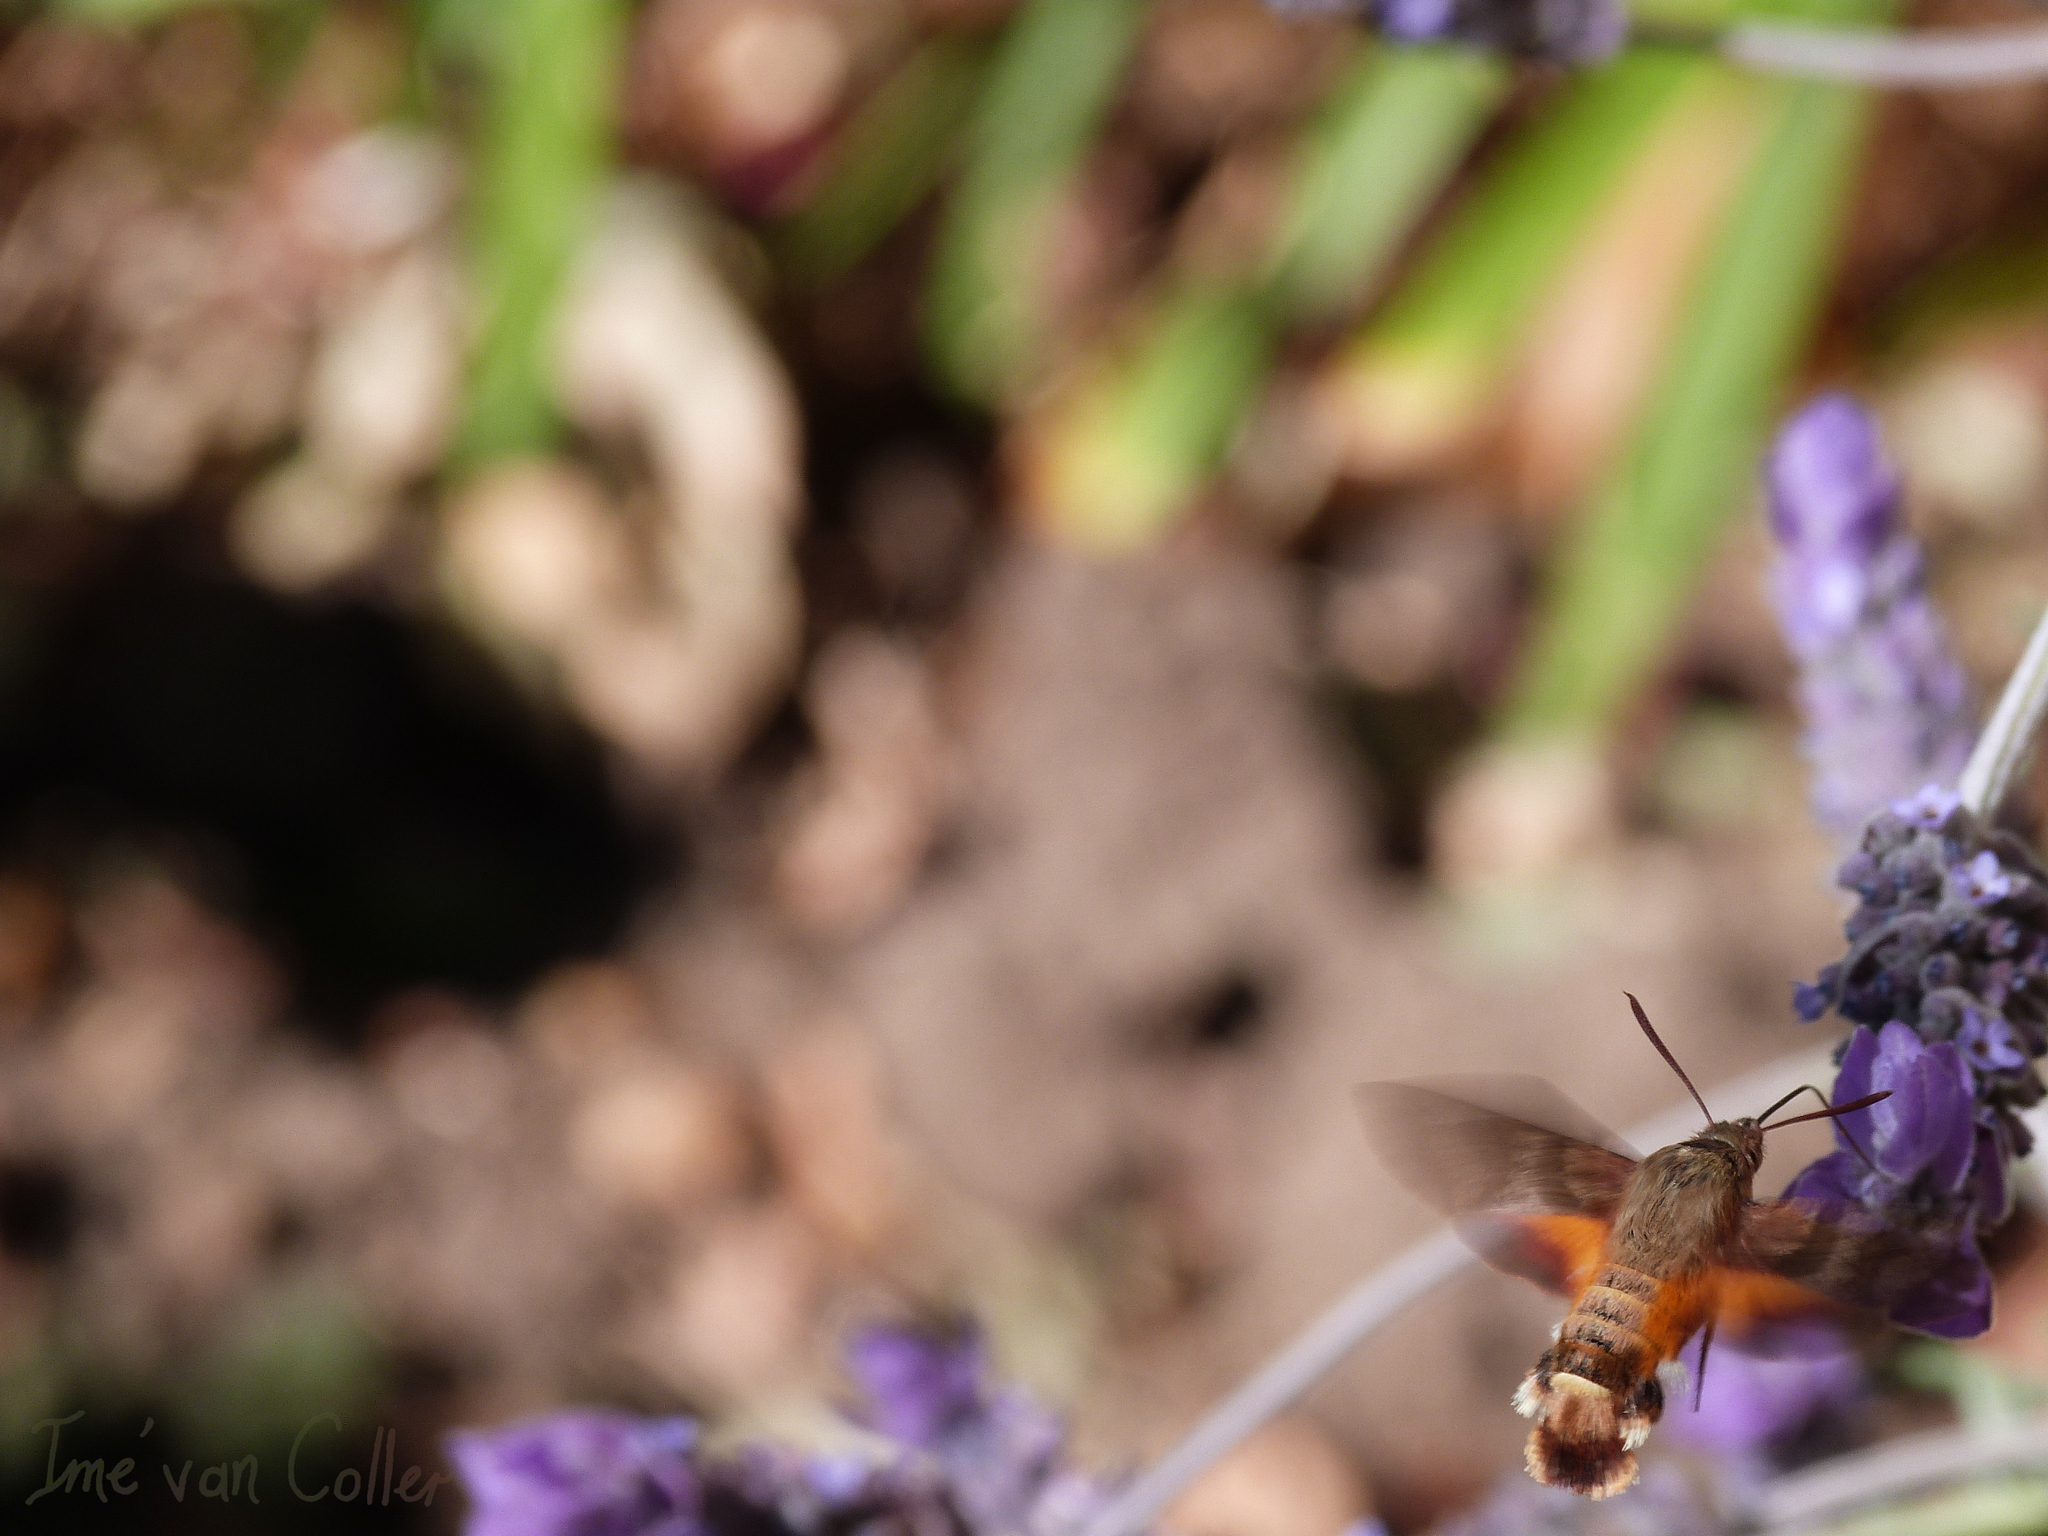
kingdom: Animalia
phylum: Arthropoda
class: Insecta
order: Lepidoptera
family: Sphingidae
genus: Macroglossum
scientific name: Macroglossum trochilus
